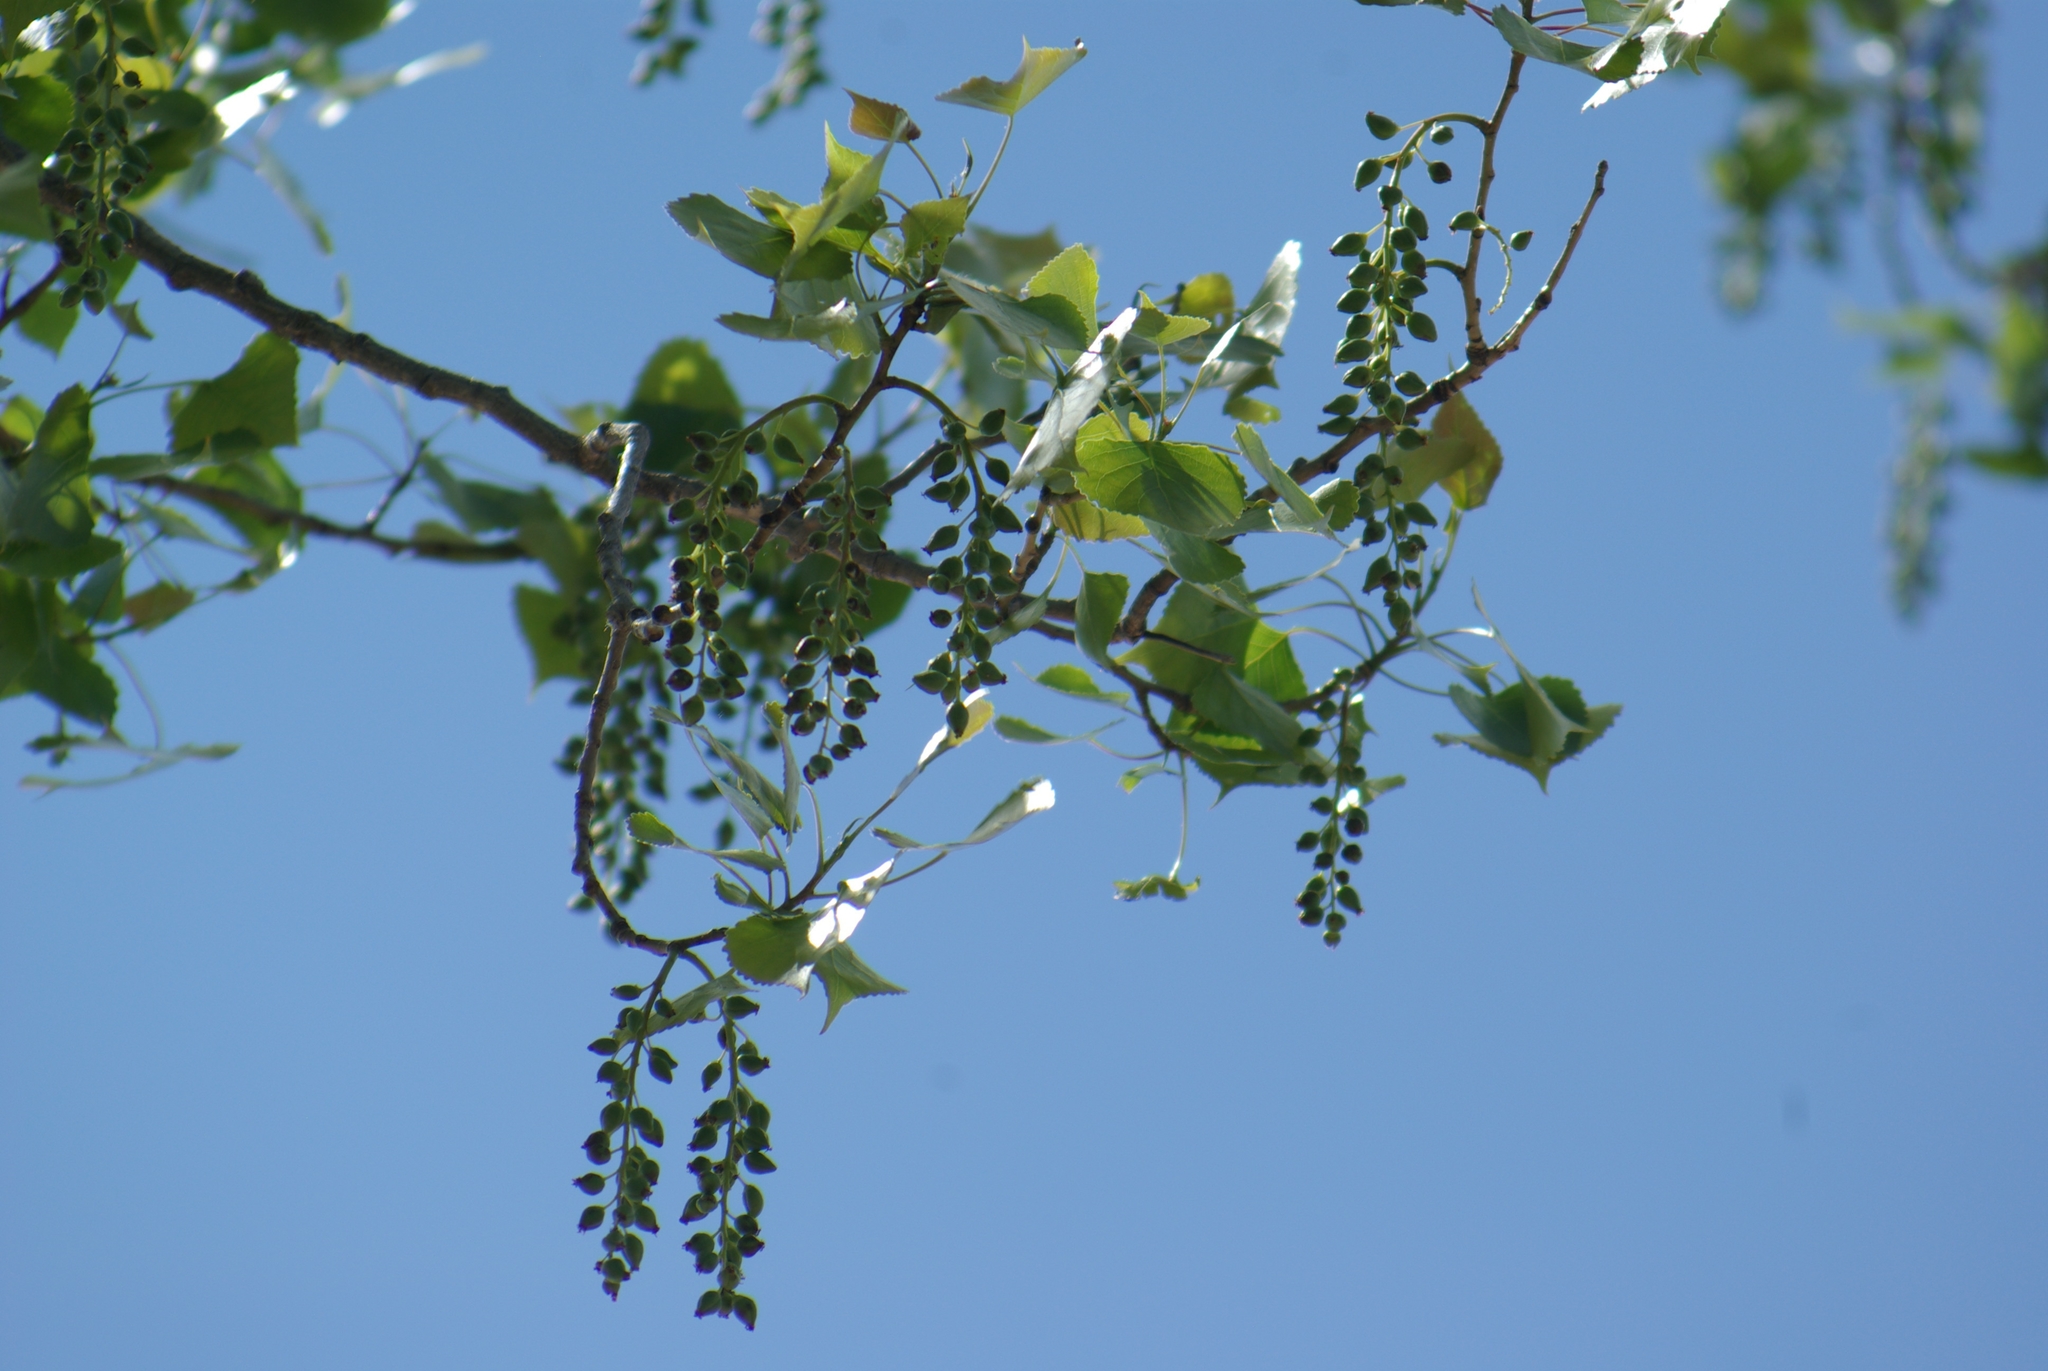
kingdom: Plantae
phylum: Tracheophyta
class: Magnoliopsida
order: Malpighiales
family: Salicaceae
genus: Populus
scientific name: Populus deltoides
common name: Eastern cottonwood
